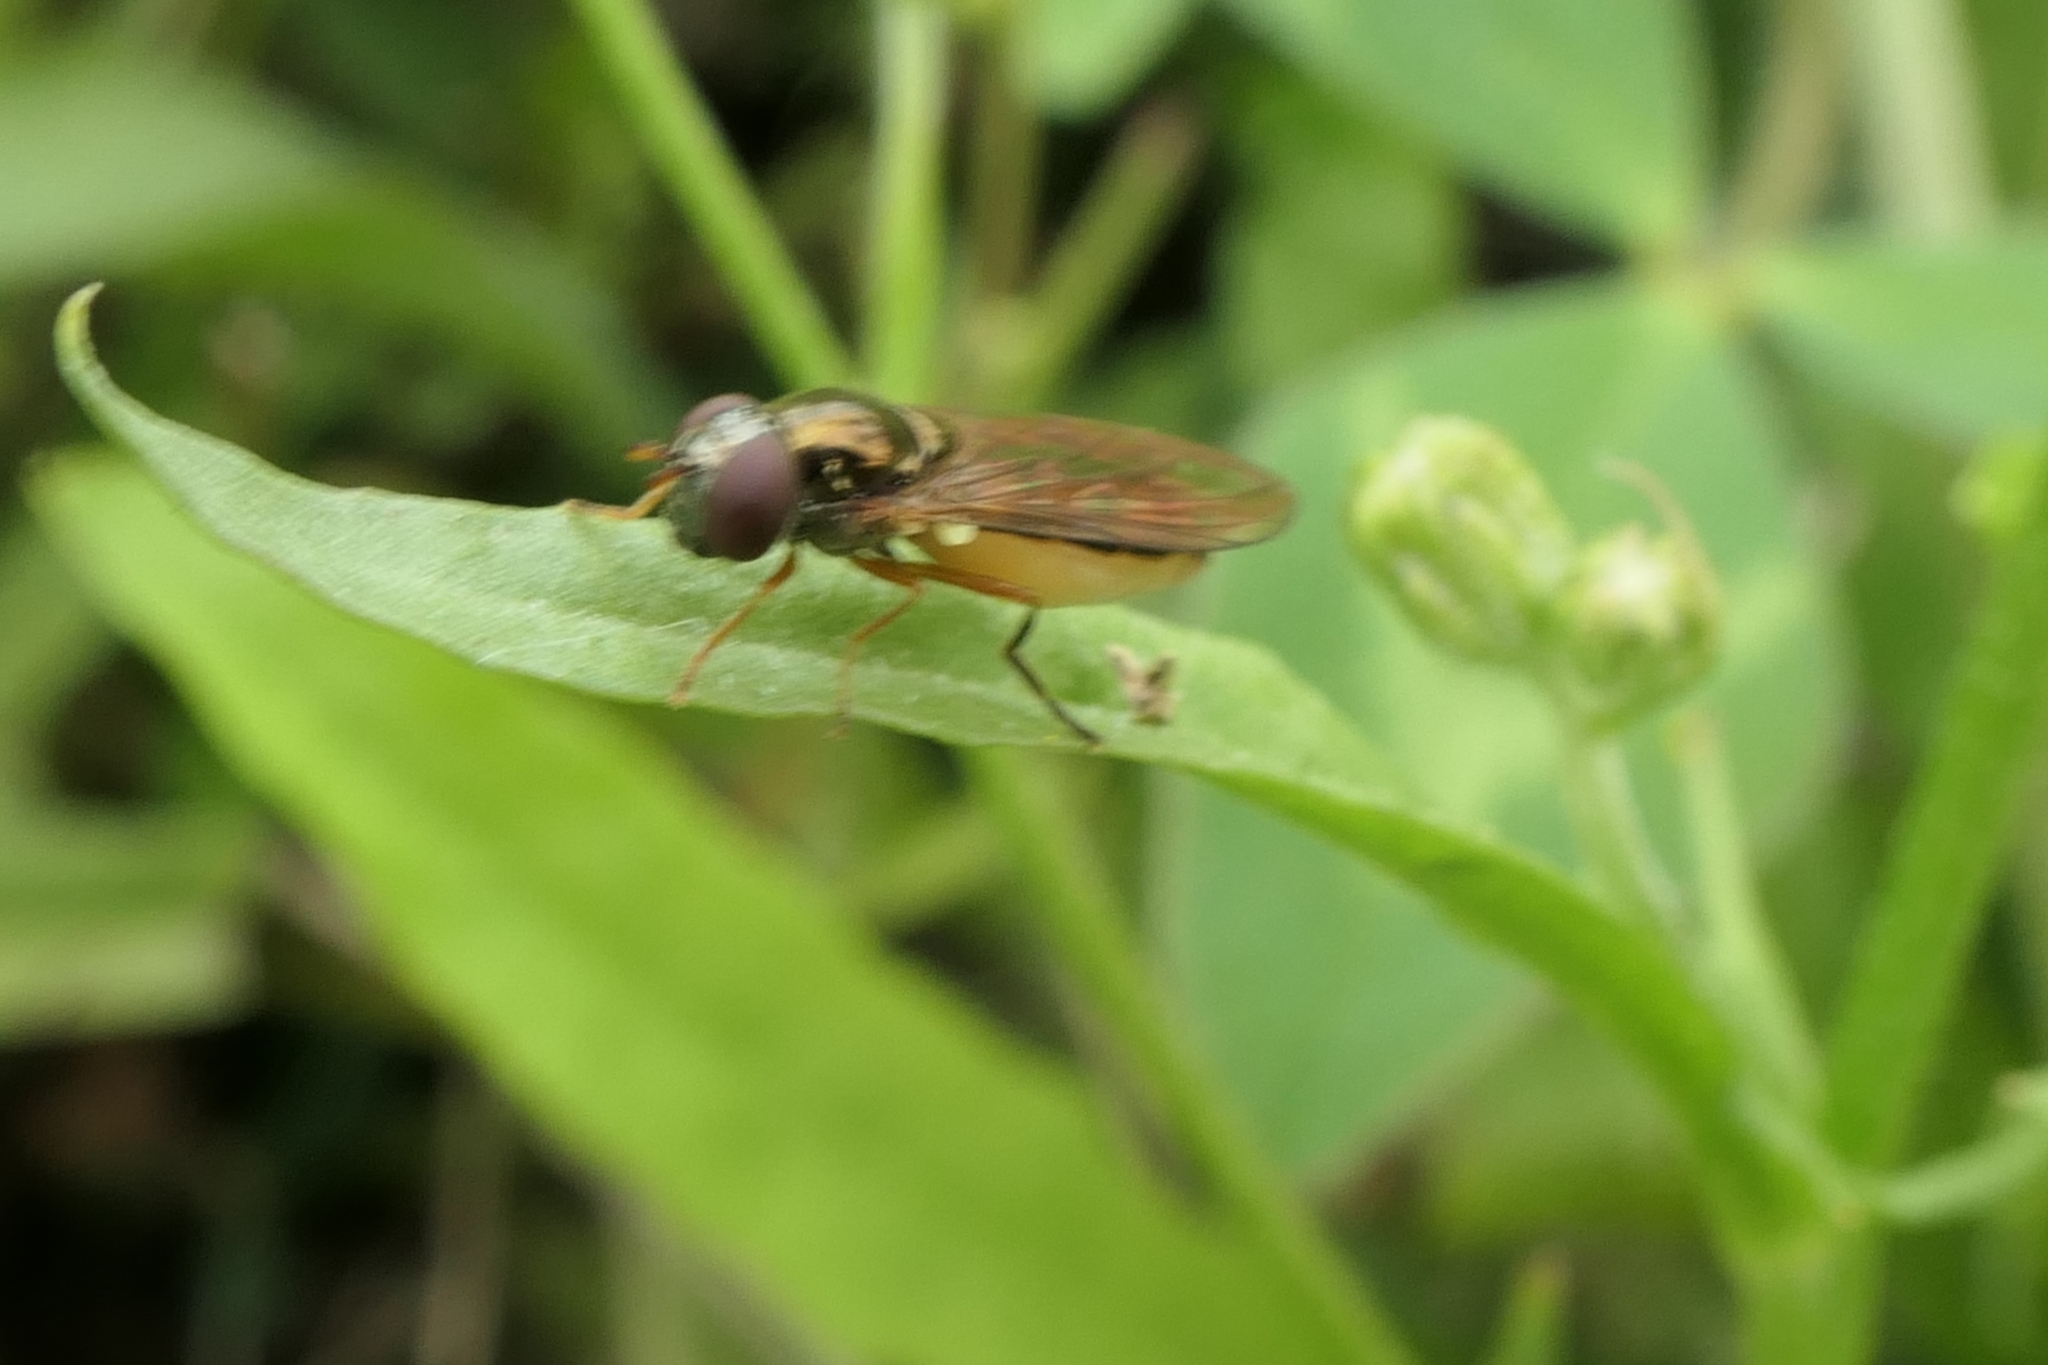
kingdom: Animalia
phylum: Arthropoda
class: Insecta
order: Diptera
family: Syrphidae
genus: Melanostoma
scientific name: Melanostoma fasciatum
